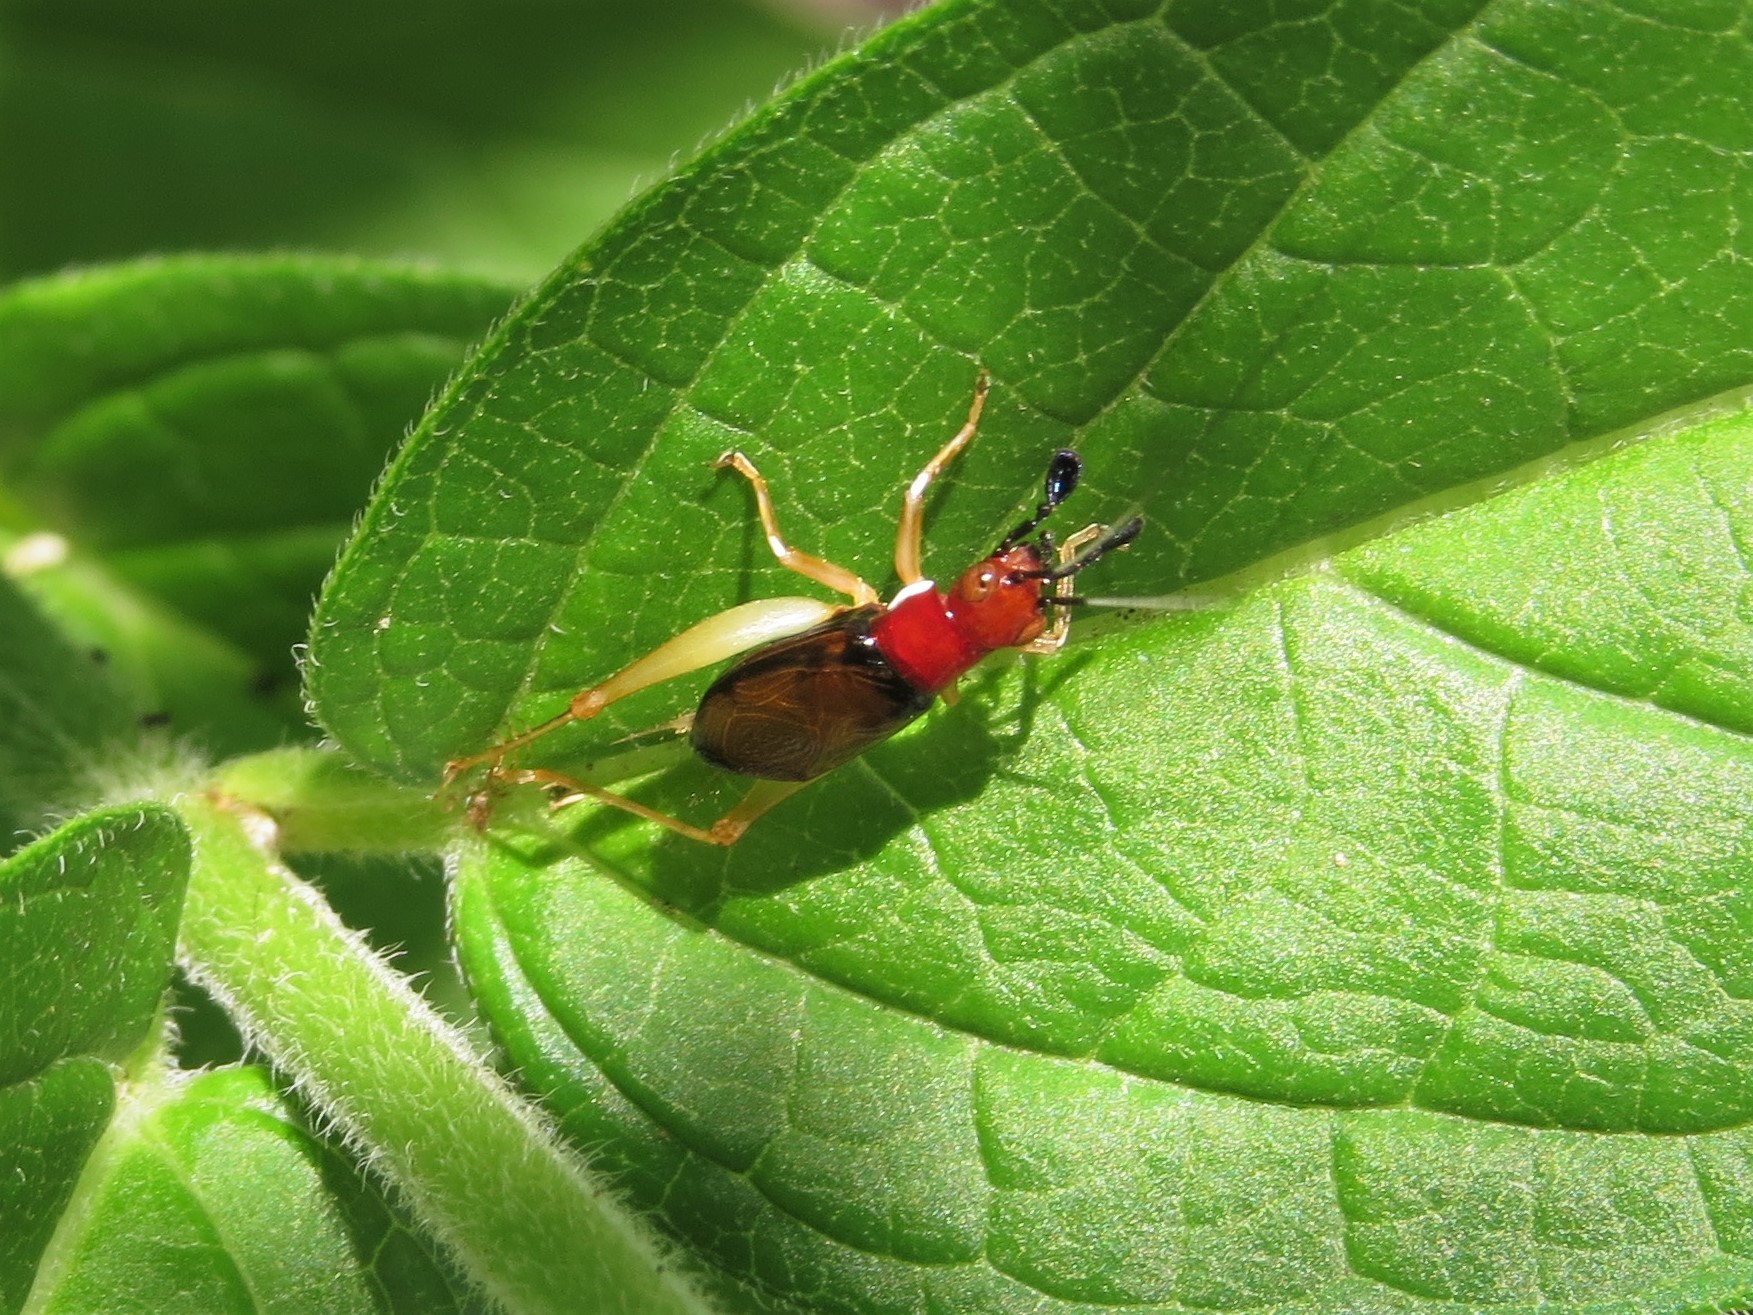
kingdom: Animalia
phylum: Arthropoda
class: Insecta
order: Orthoptera
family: Trigonidiidae
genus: Phyllopalpus
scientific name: Phyllopalpus pulchellus
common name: Handsome trig
